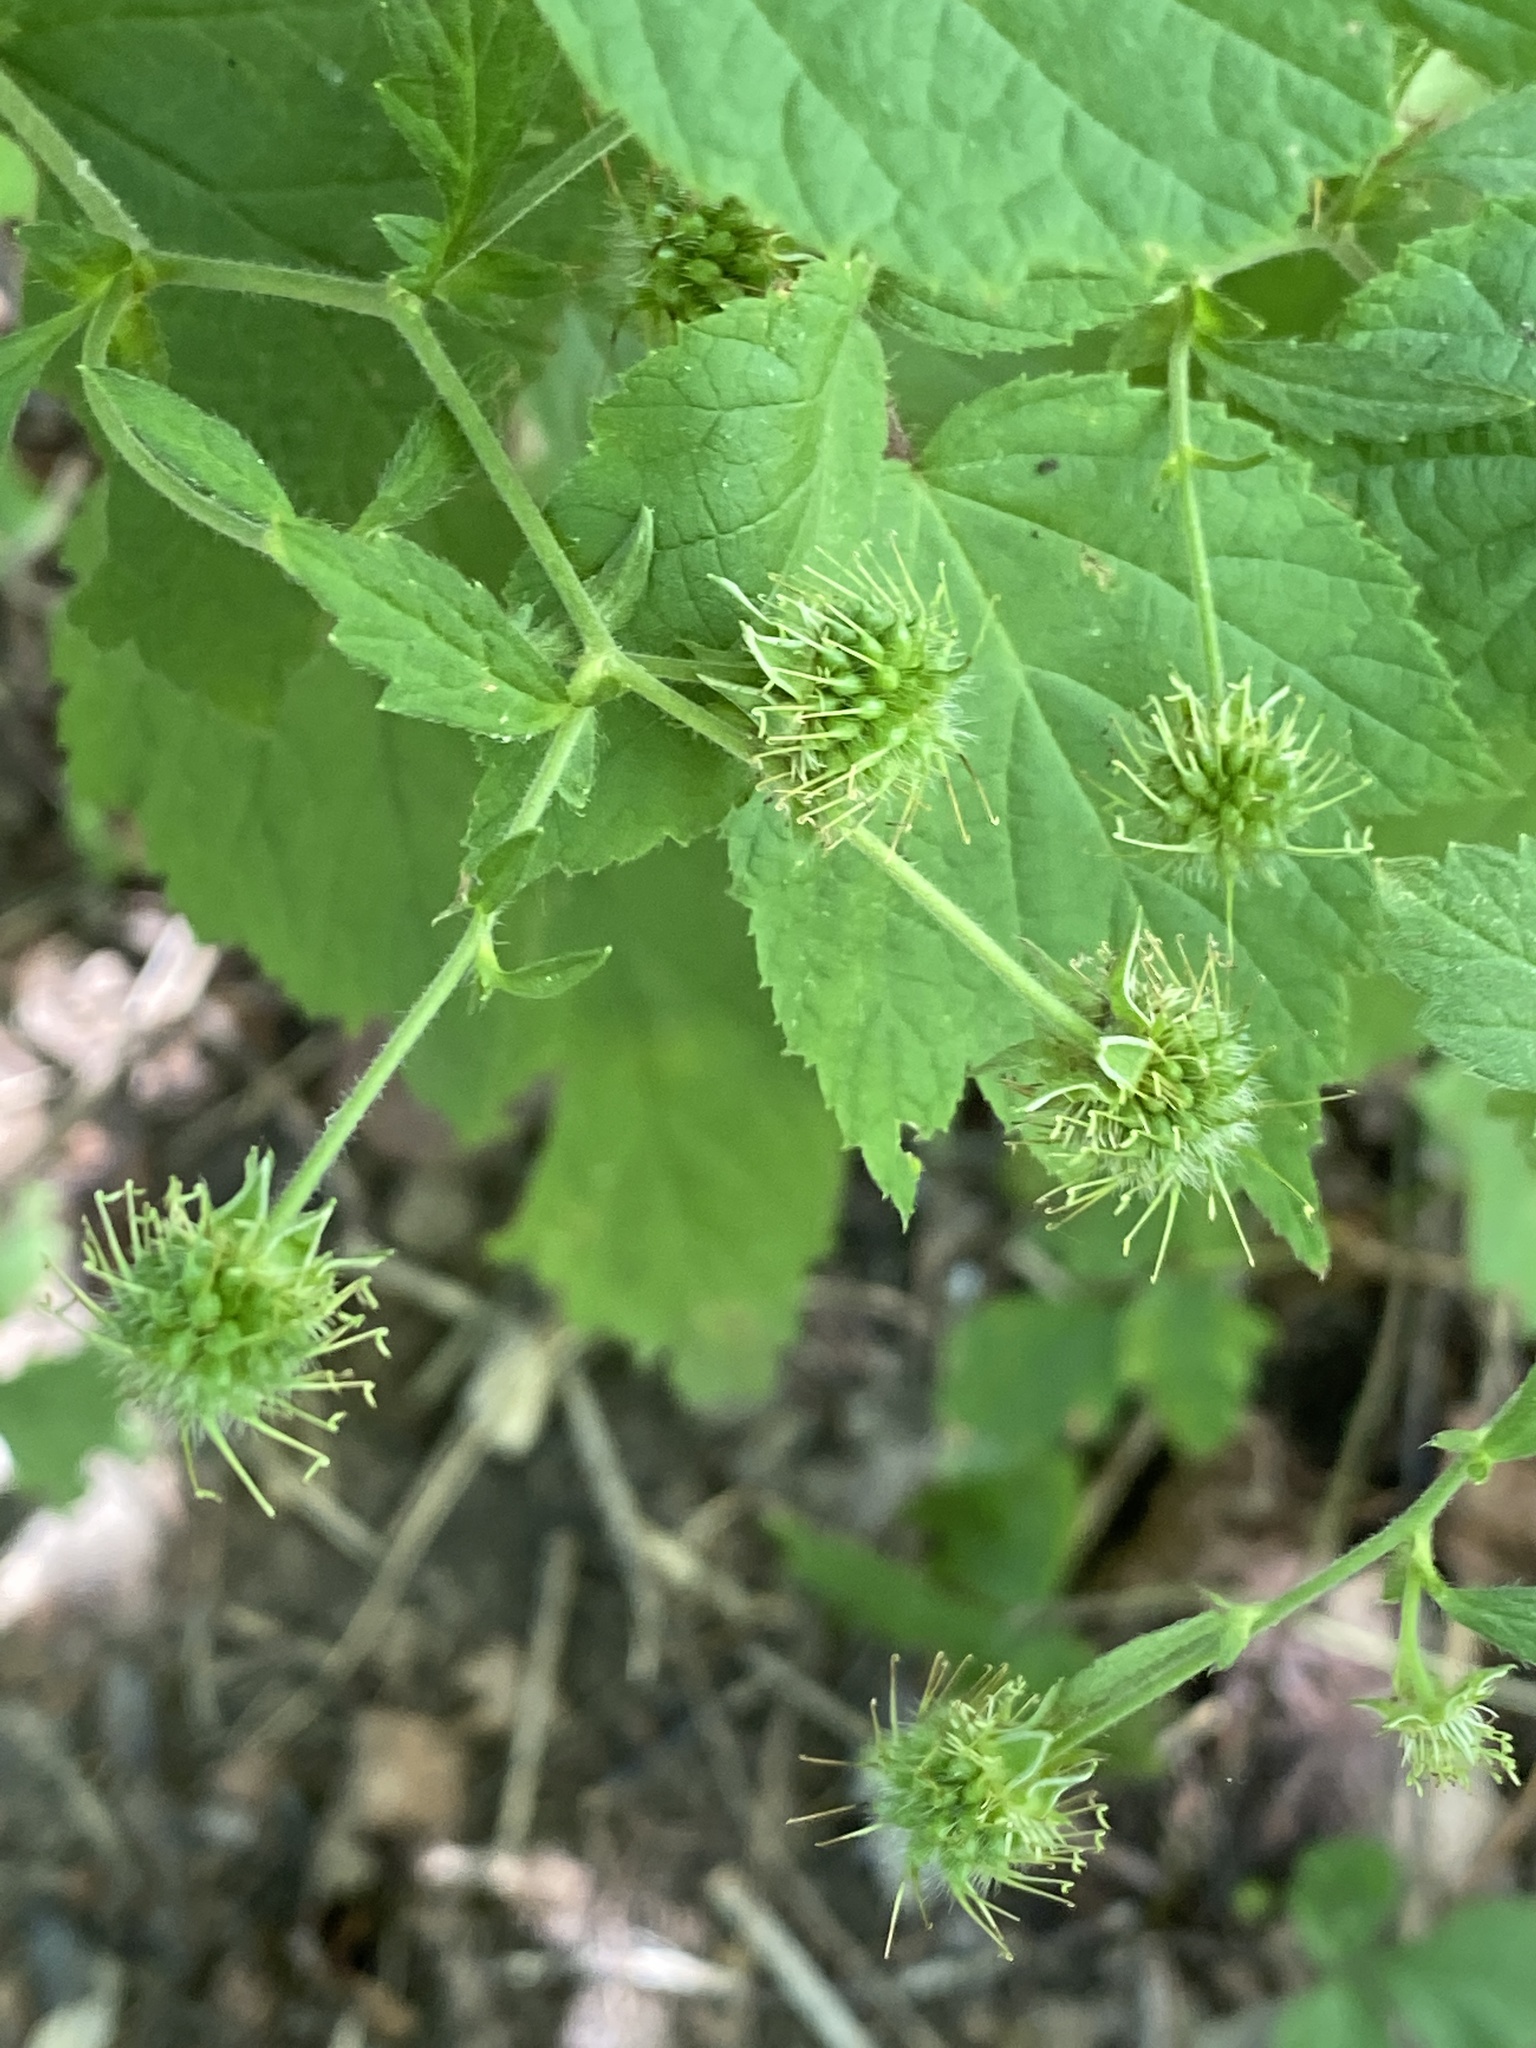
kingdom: Plantae
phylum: Tracheophyta
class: Magnoliopsida
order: Rosales
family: Rosaceae
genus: Geum
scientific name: Geum canadense
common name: White avens
